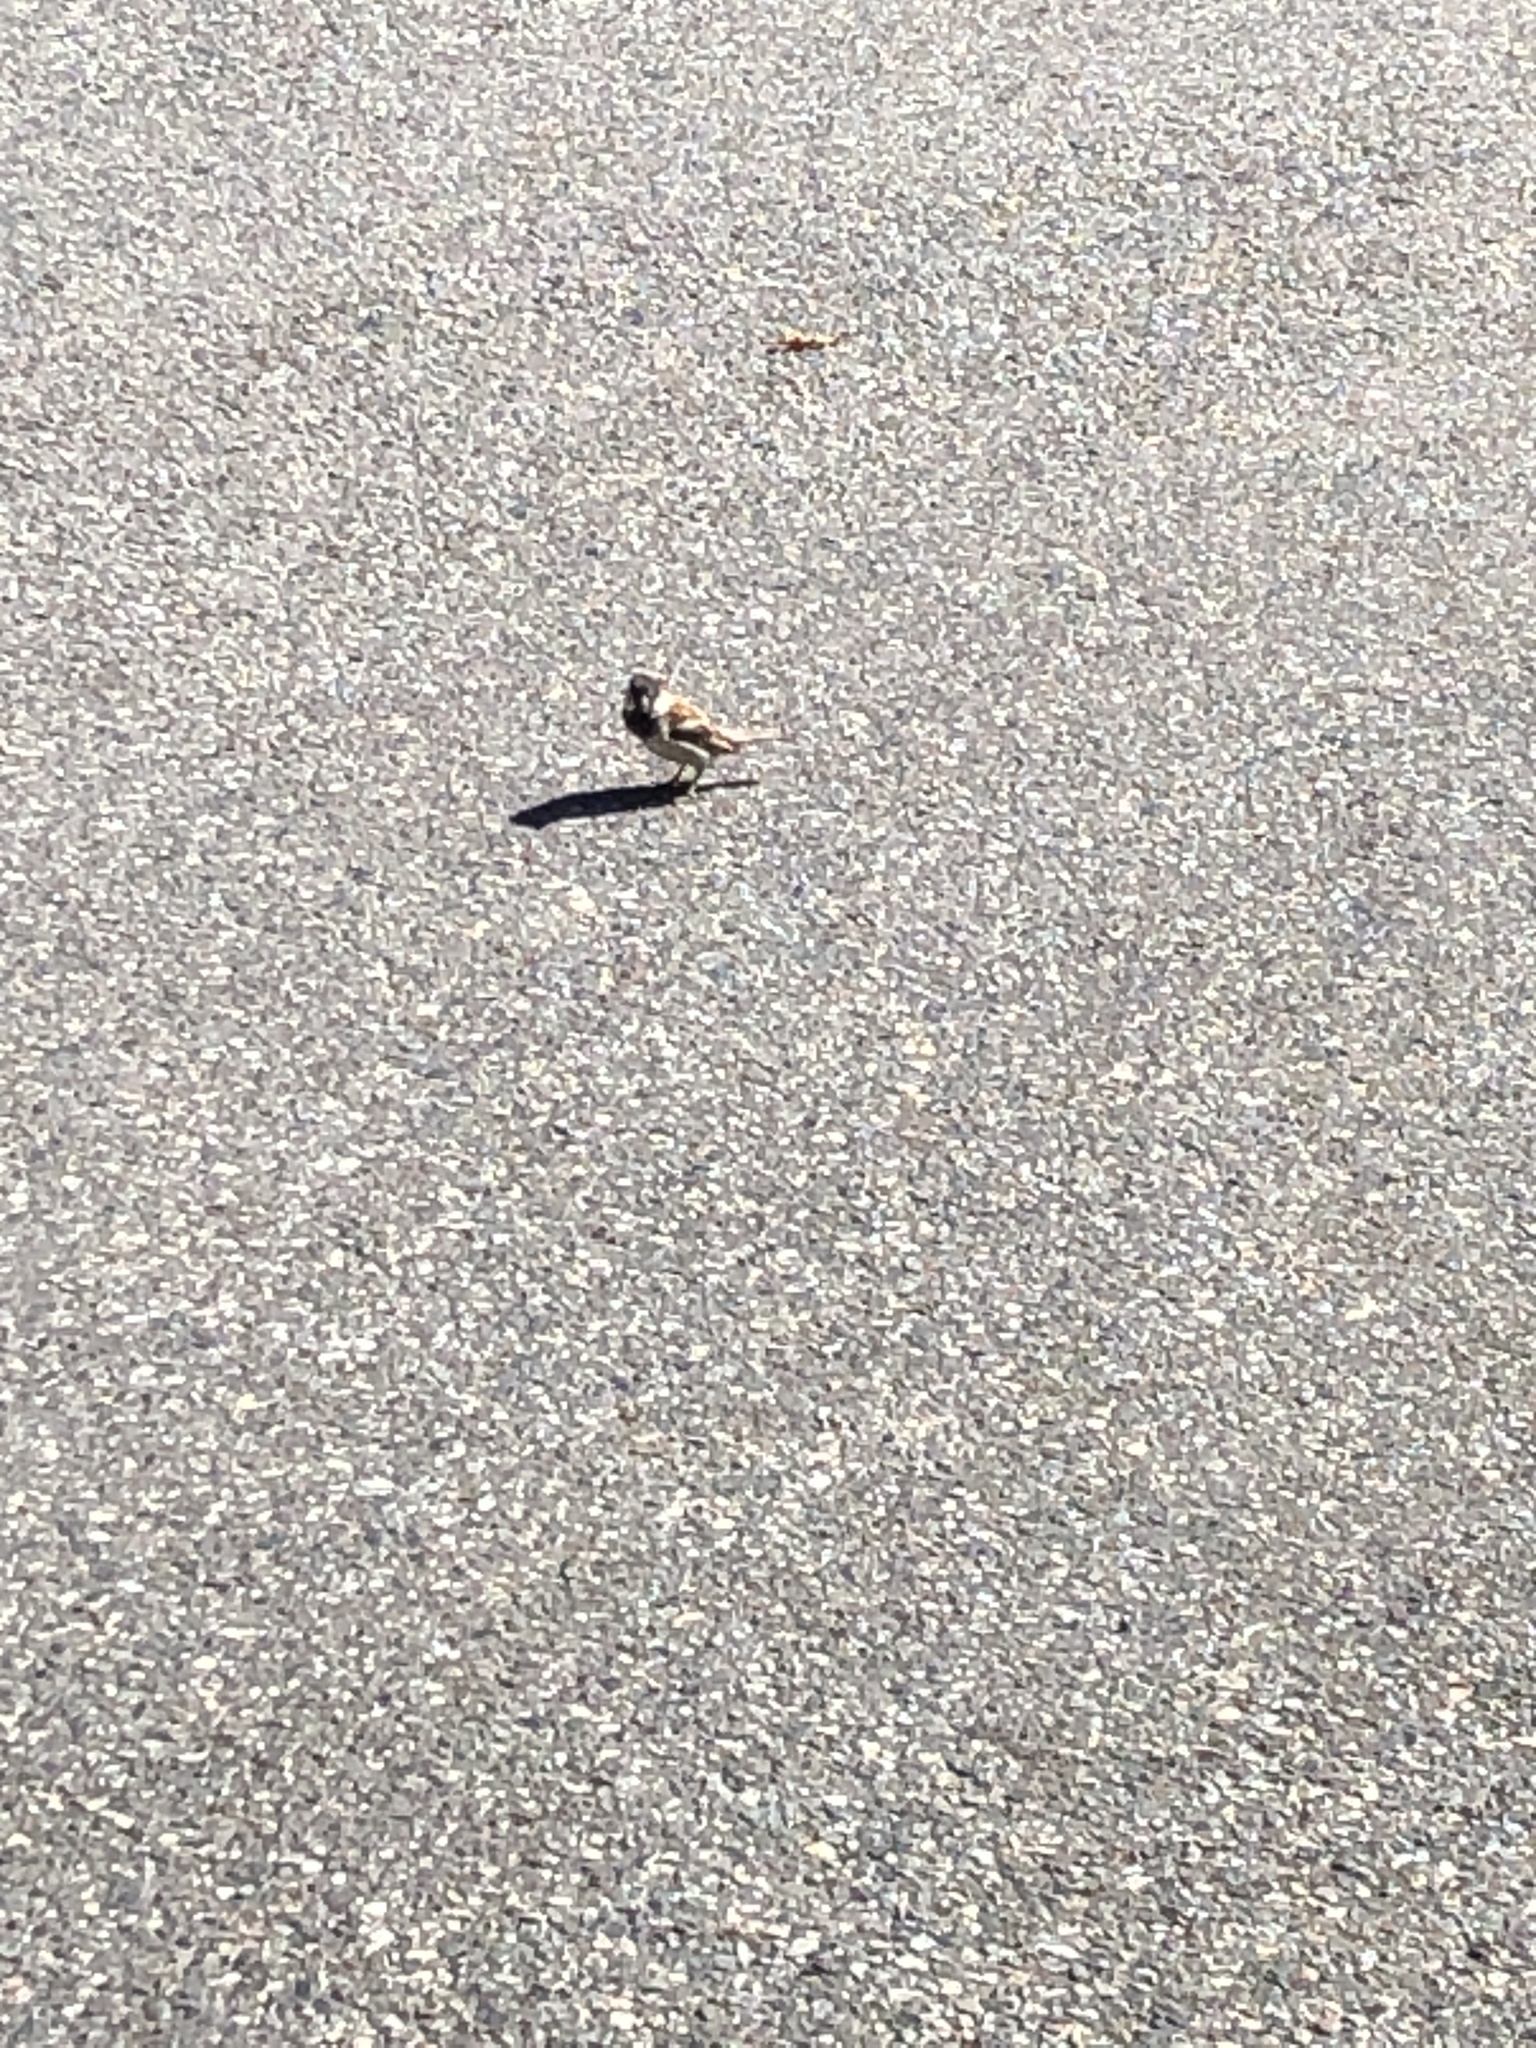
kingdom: Animalia
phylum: Chordata
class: Aves
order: Passeriformes
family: Passeridae
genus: Passer
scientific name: Passer domesticus
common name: House sparrow
